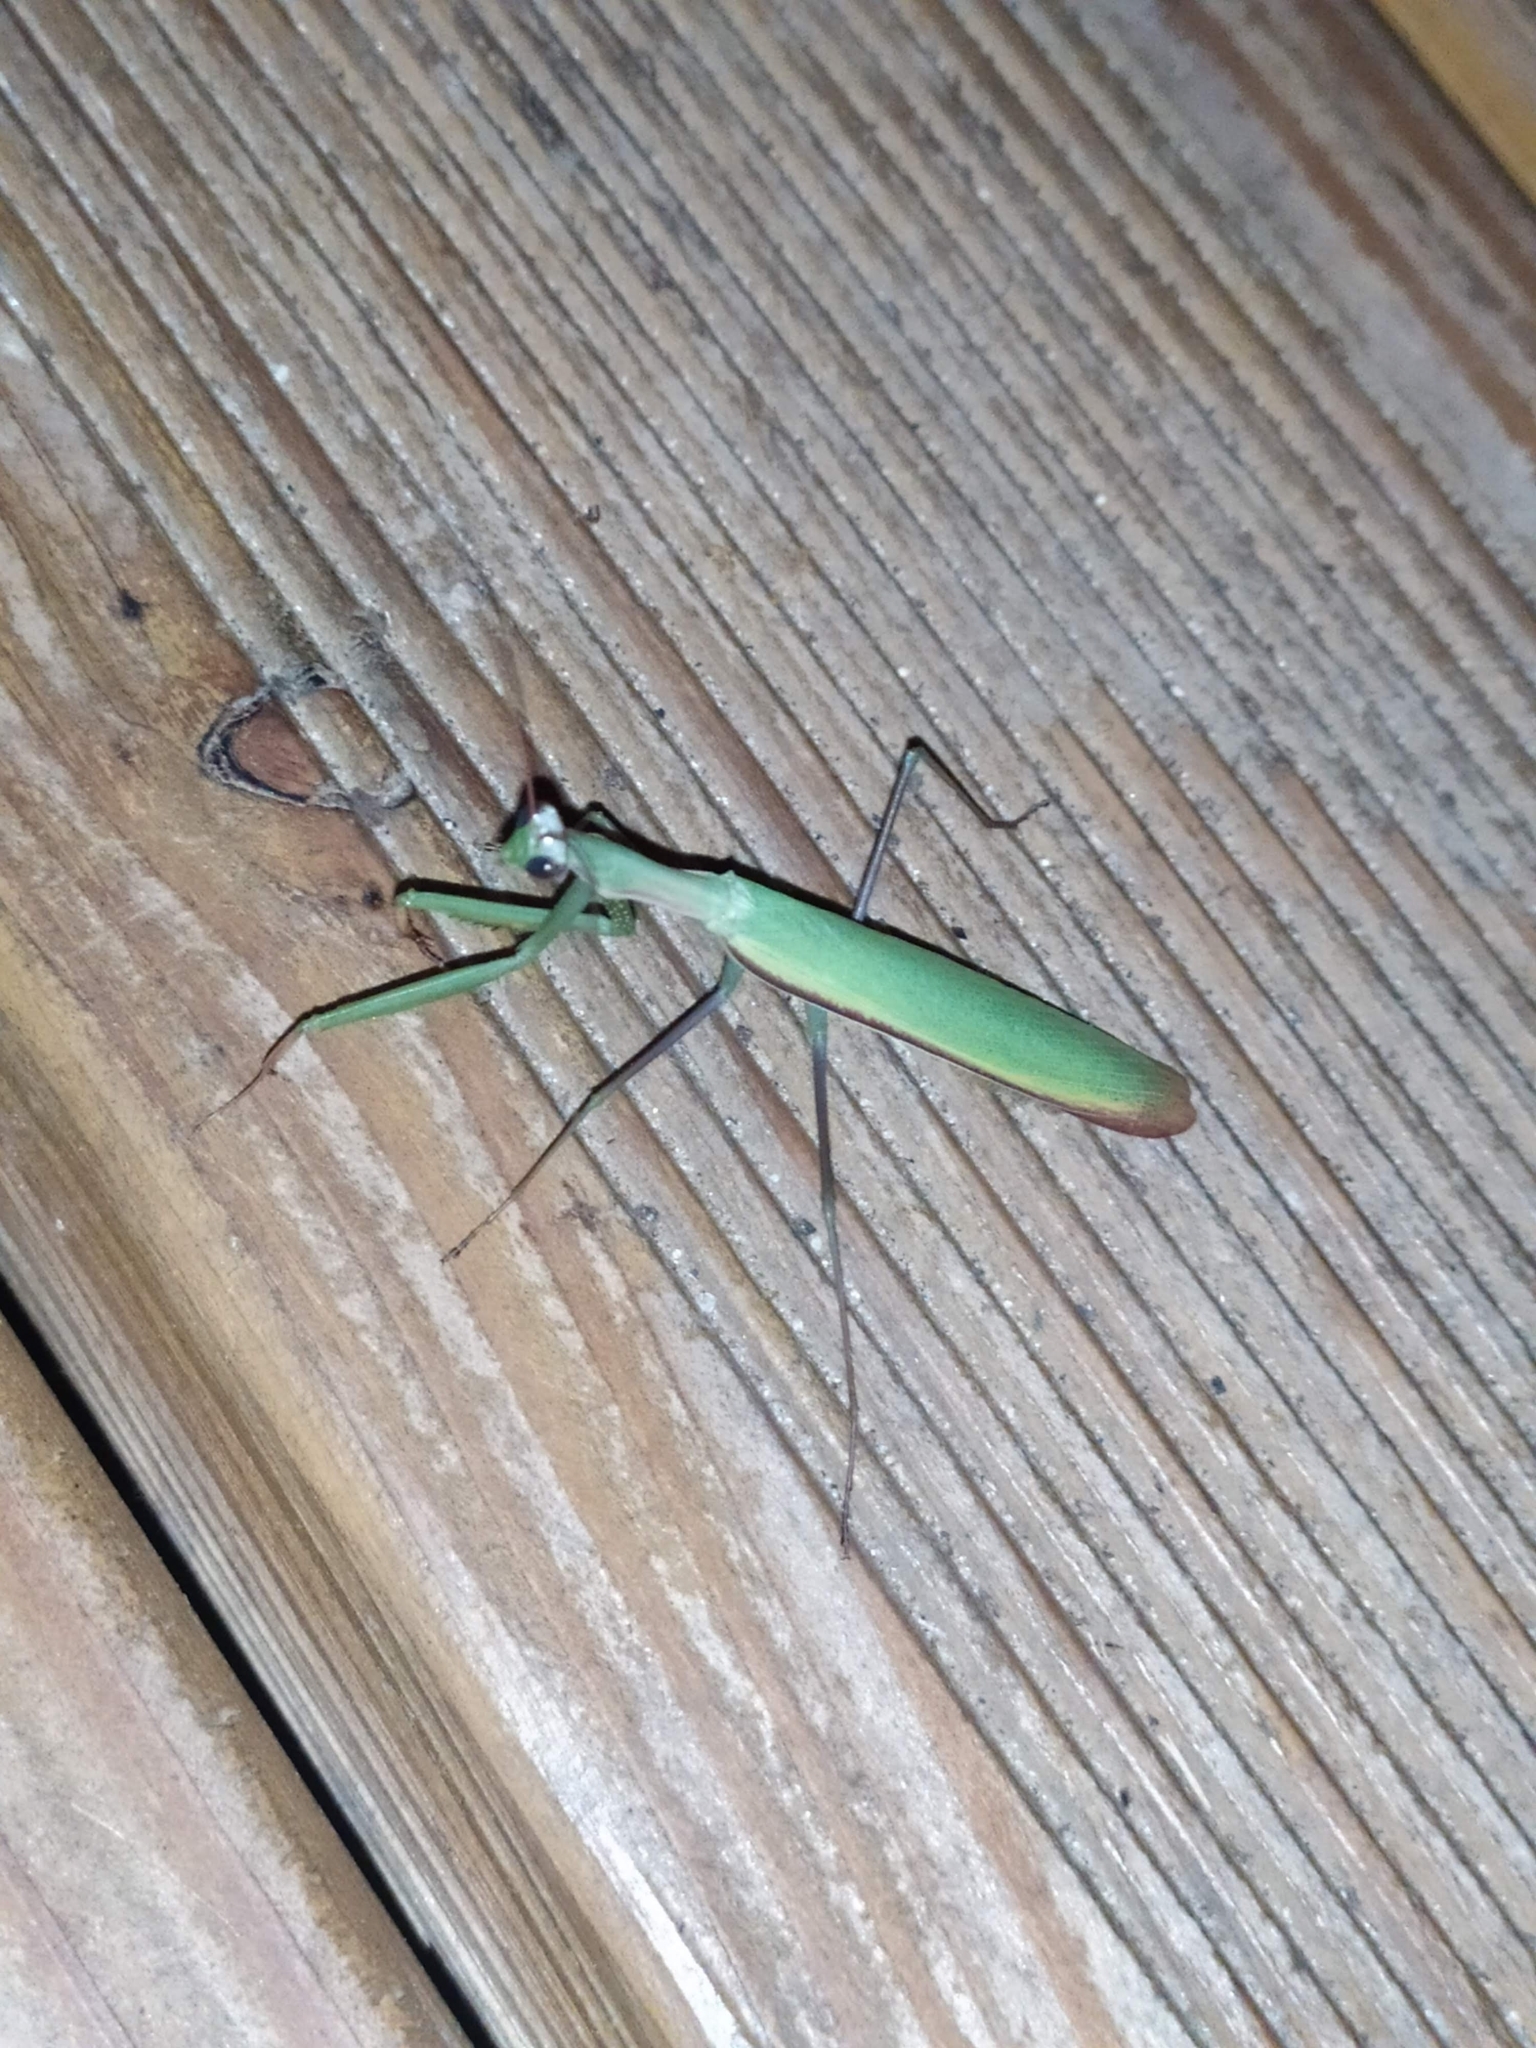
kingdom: Animalia
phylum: Arthropoda
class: Insecta
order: Mantodea
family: Mantidae
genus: Mantis
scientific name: Mantis religiosa
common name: Praying mantis
